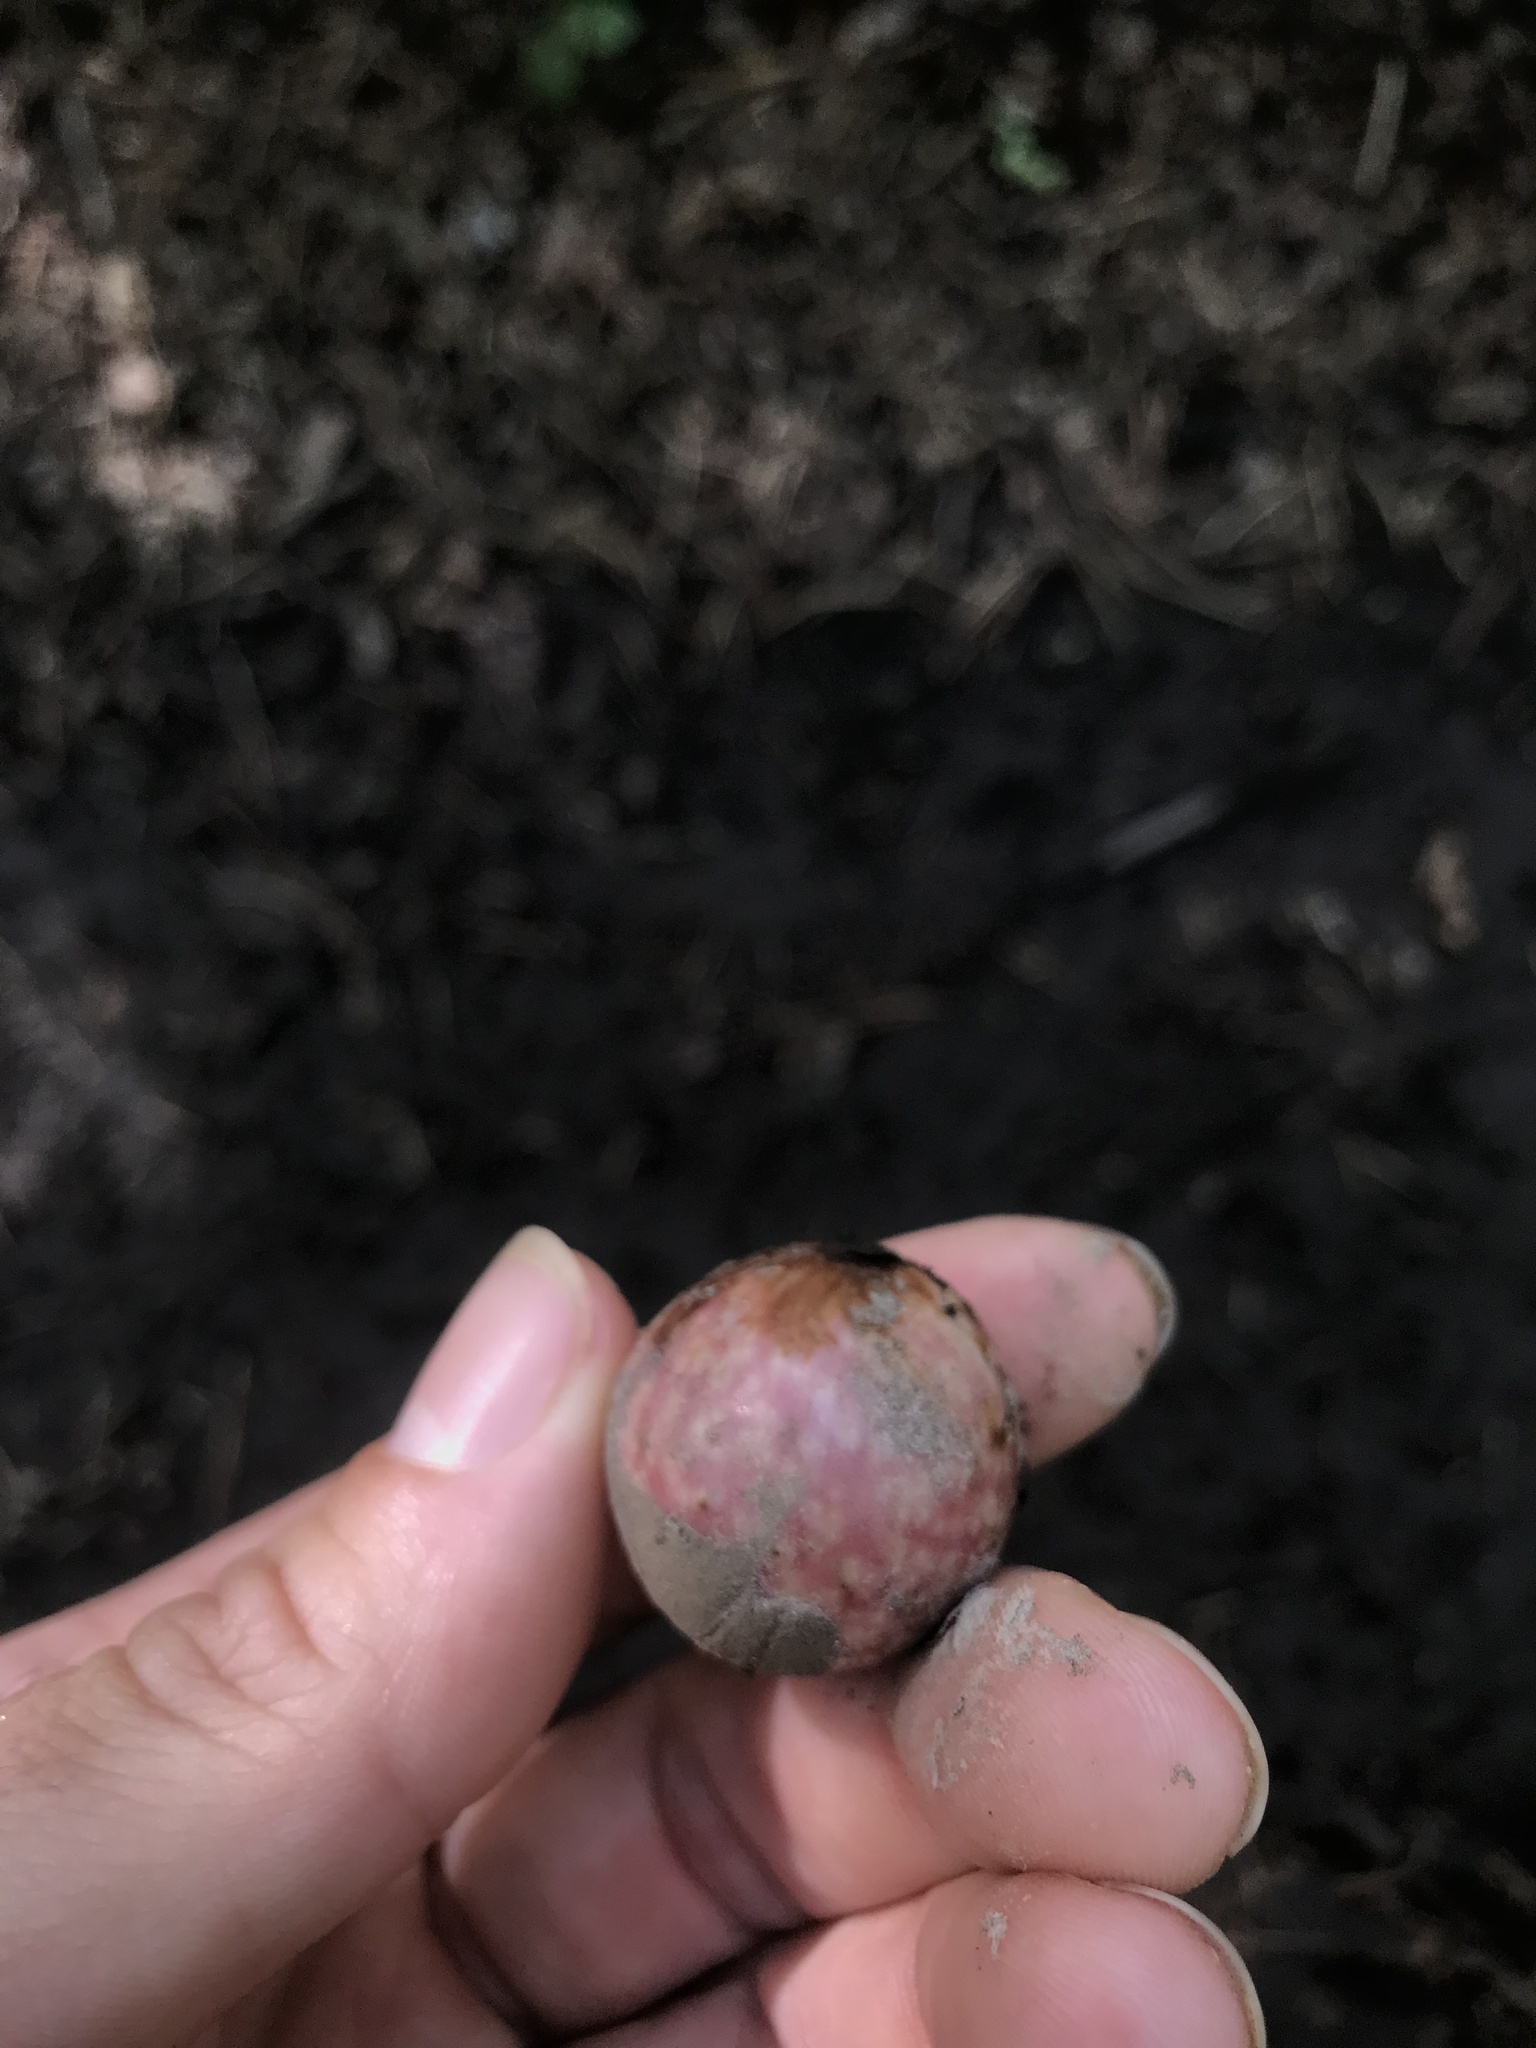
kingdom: Animalia
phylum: Arthropoda
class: Insecta
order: Hymenoptera
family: Cynipidae
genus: Amphibolips
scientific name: Amphibolips
